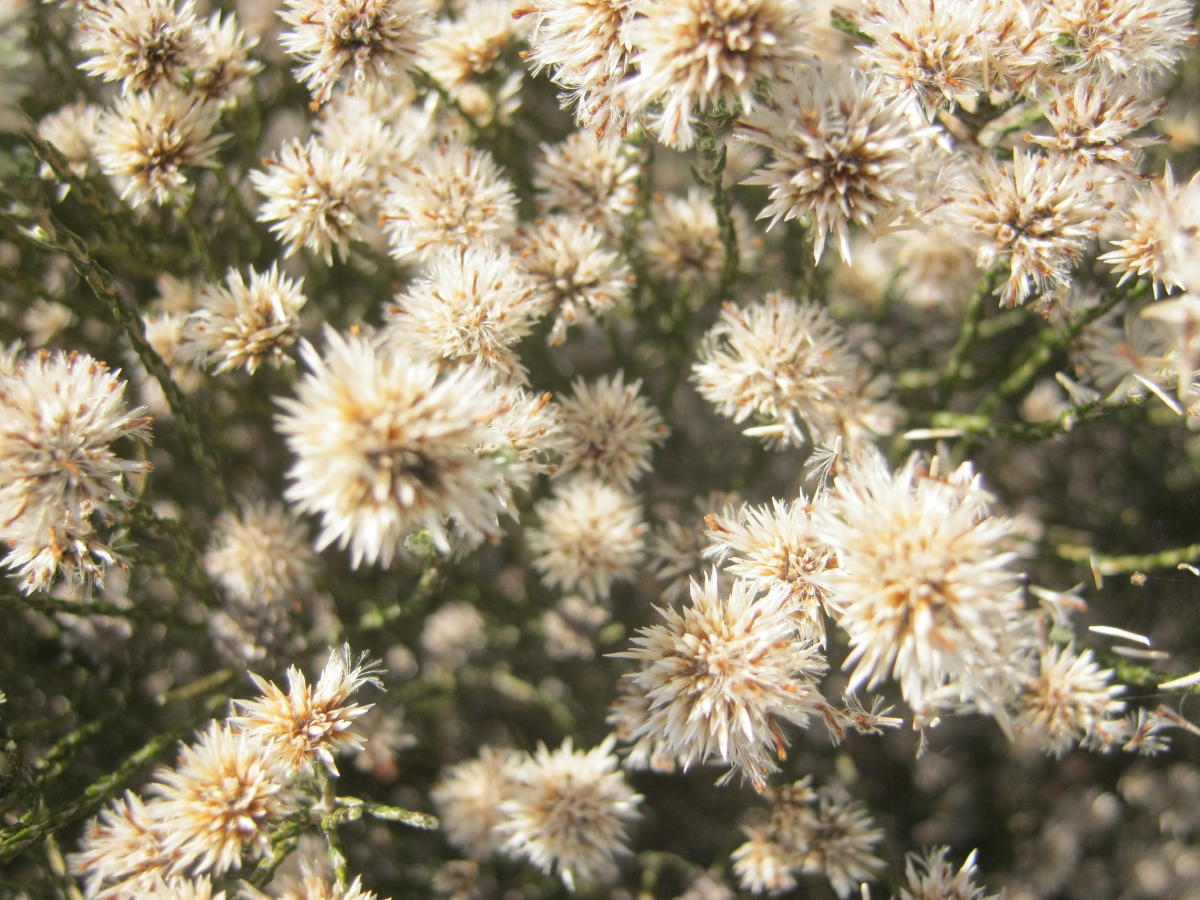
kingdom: Plantae
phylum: Tracheophyta
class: Magnoliopsida
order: Asterales
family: Asteraceae
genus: Stoebe
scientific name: Stoebe microphylla
